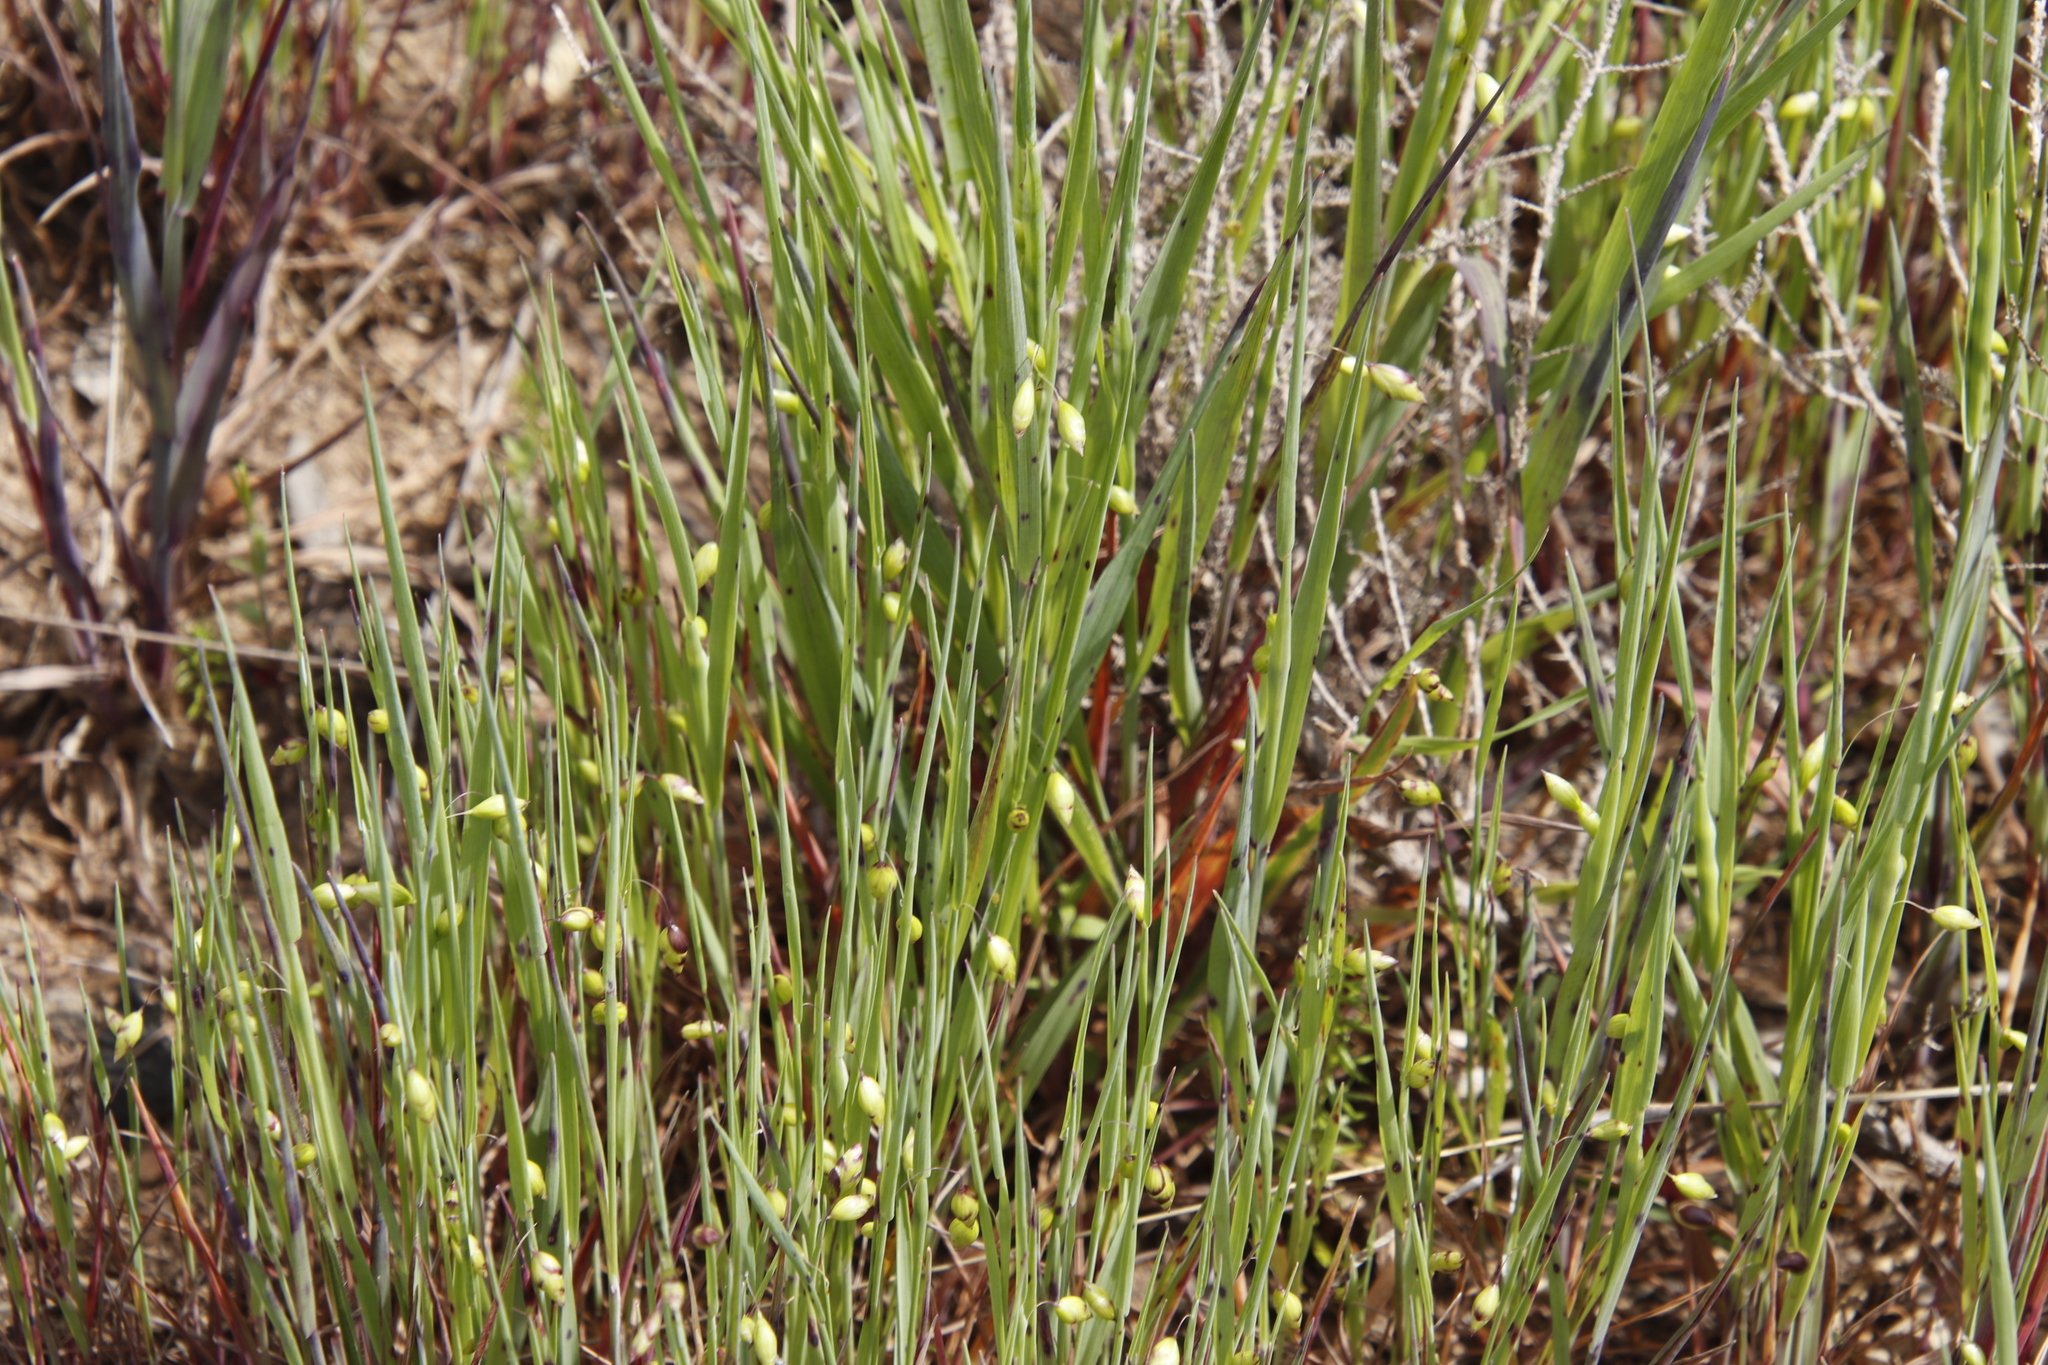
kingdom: Plantae
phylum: Tracheophyta
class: Liliopsida
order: Poales
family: Poaceae
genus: Briza
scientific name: Briza maxima
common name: Big quakinggrass
